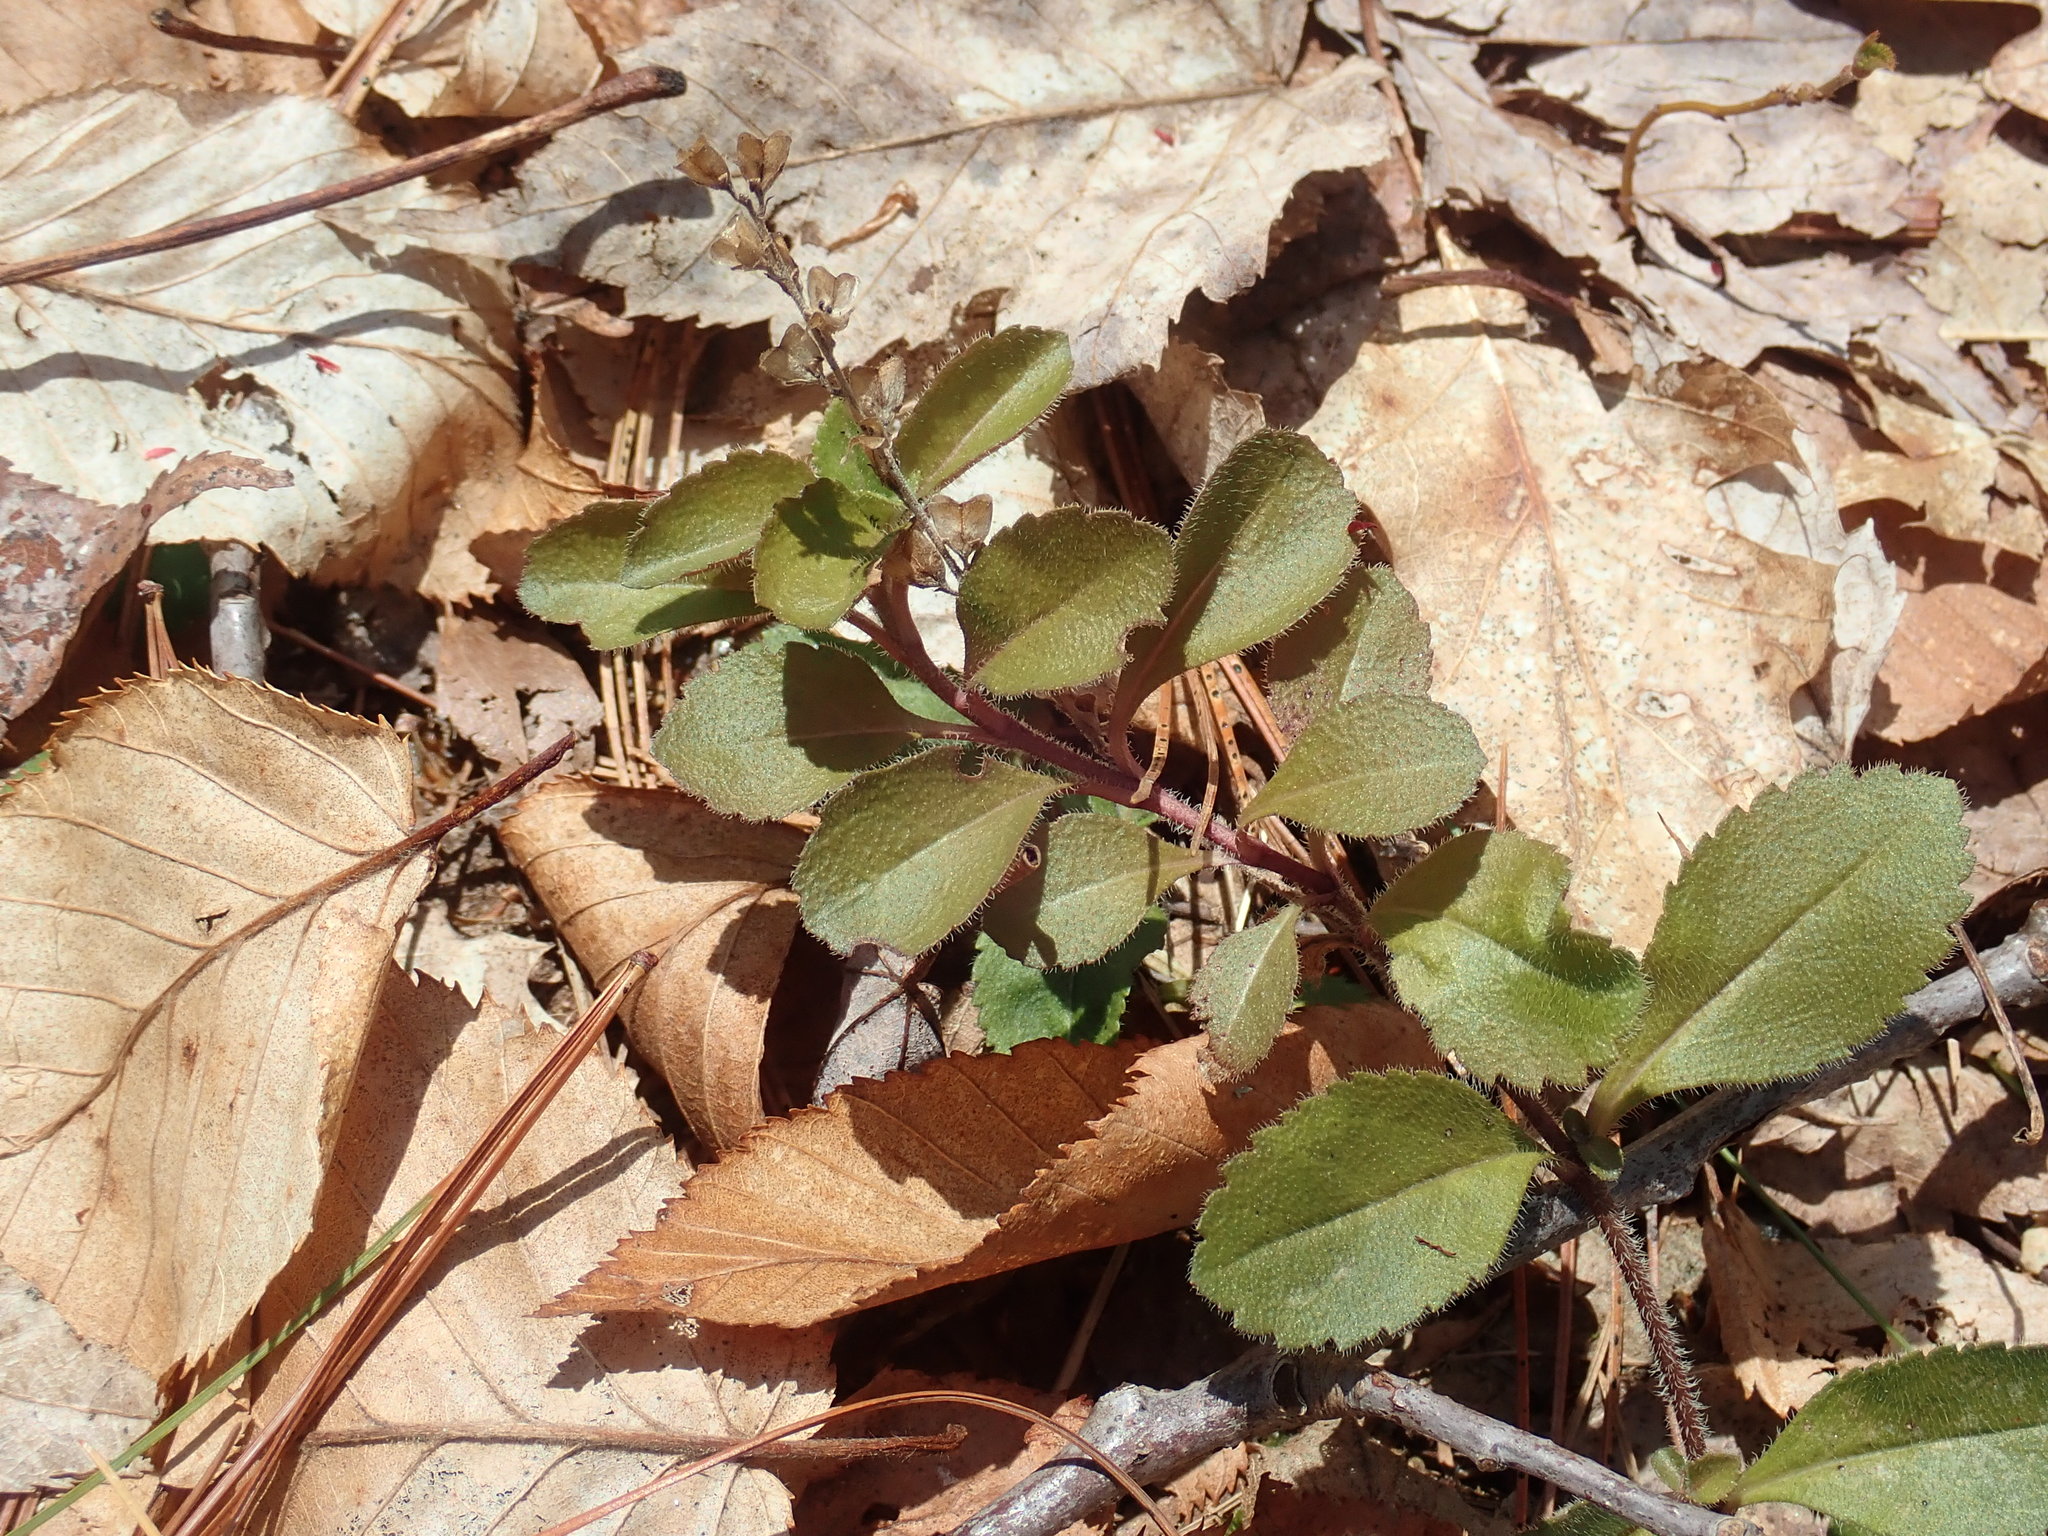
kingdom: Plantae
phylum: Tracheophyta
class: Magnoliopsida
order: Lamiales
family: Plantaginaceae
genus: Veronica
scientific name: Veronica officinalis
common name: Common speedwell
